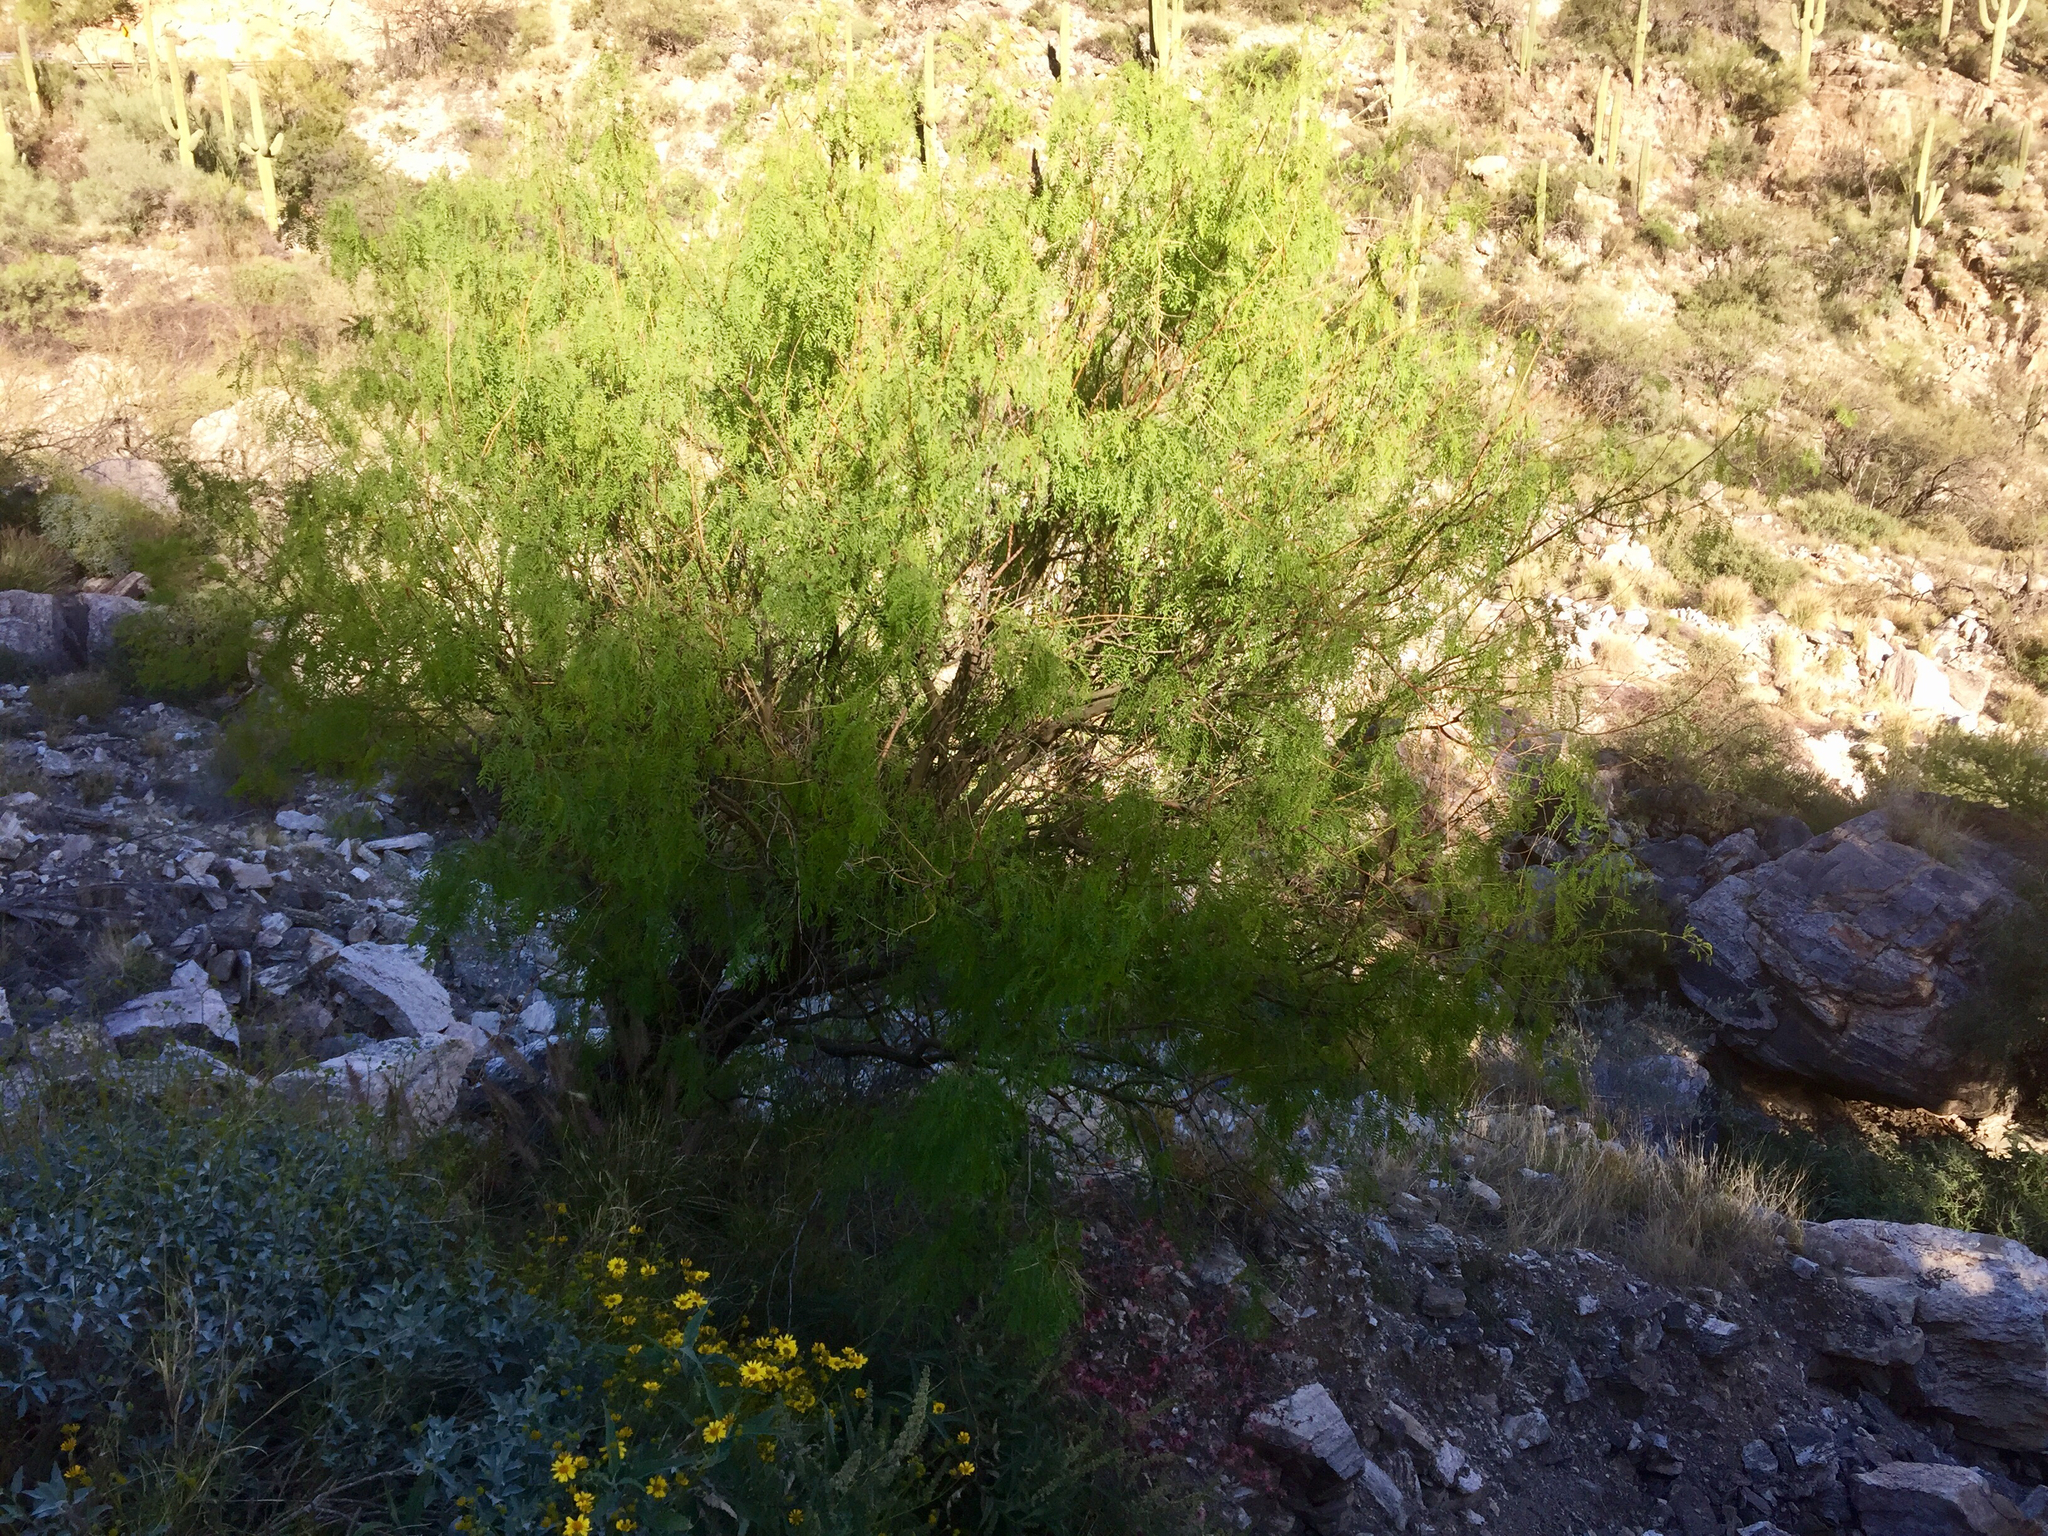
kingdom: Plantae
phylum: Tracheophyta
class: Magnoliopsida
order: Fabales
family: Fabaceae
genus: Prosopis
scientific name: Prosopis velutina
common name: Velvet mesquite
